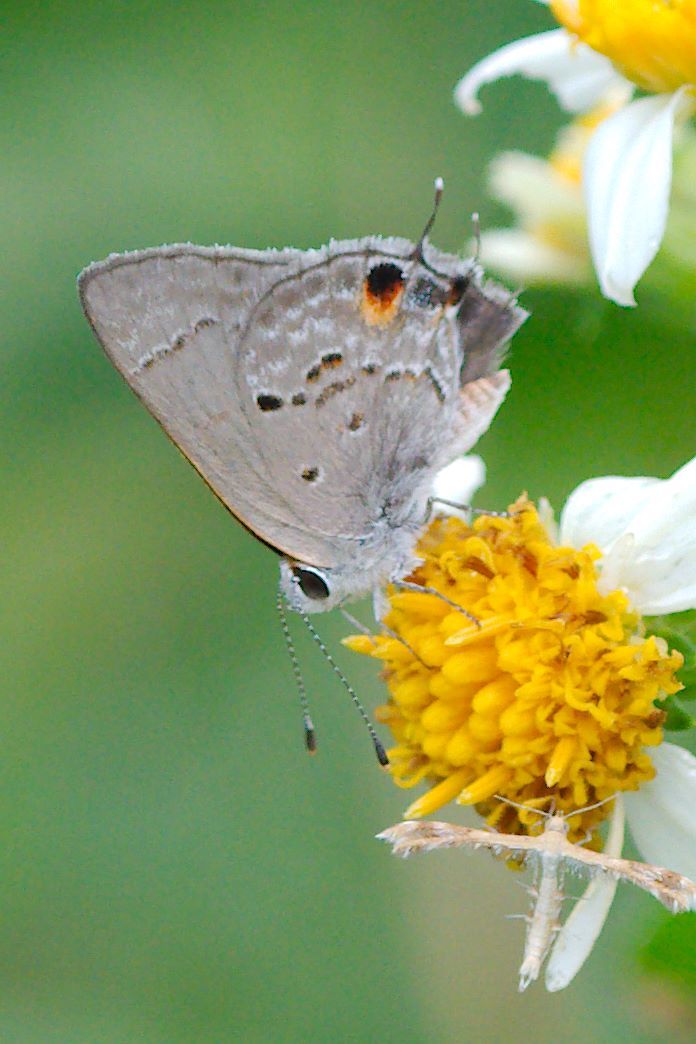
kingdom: Animalia
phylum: Arthropoda
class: Insecta
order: Lepidoptera
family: Lycaenidae
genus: Callicista
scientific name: Callicista columella
